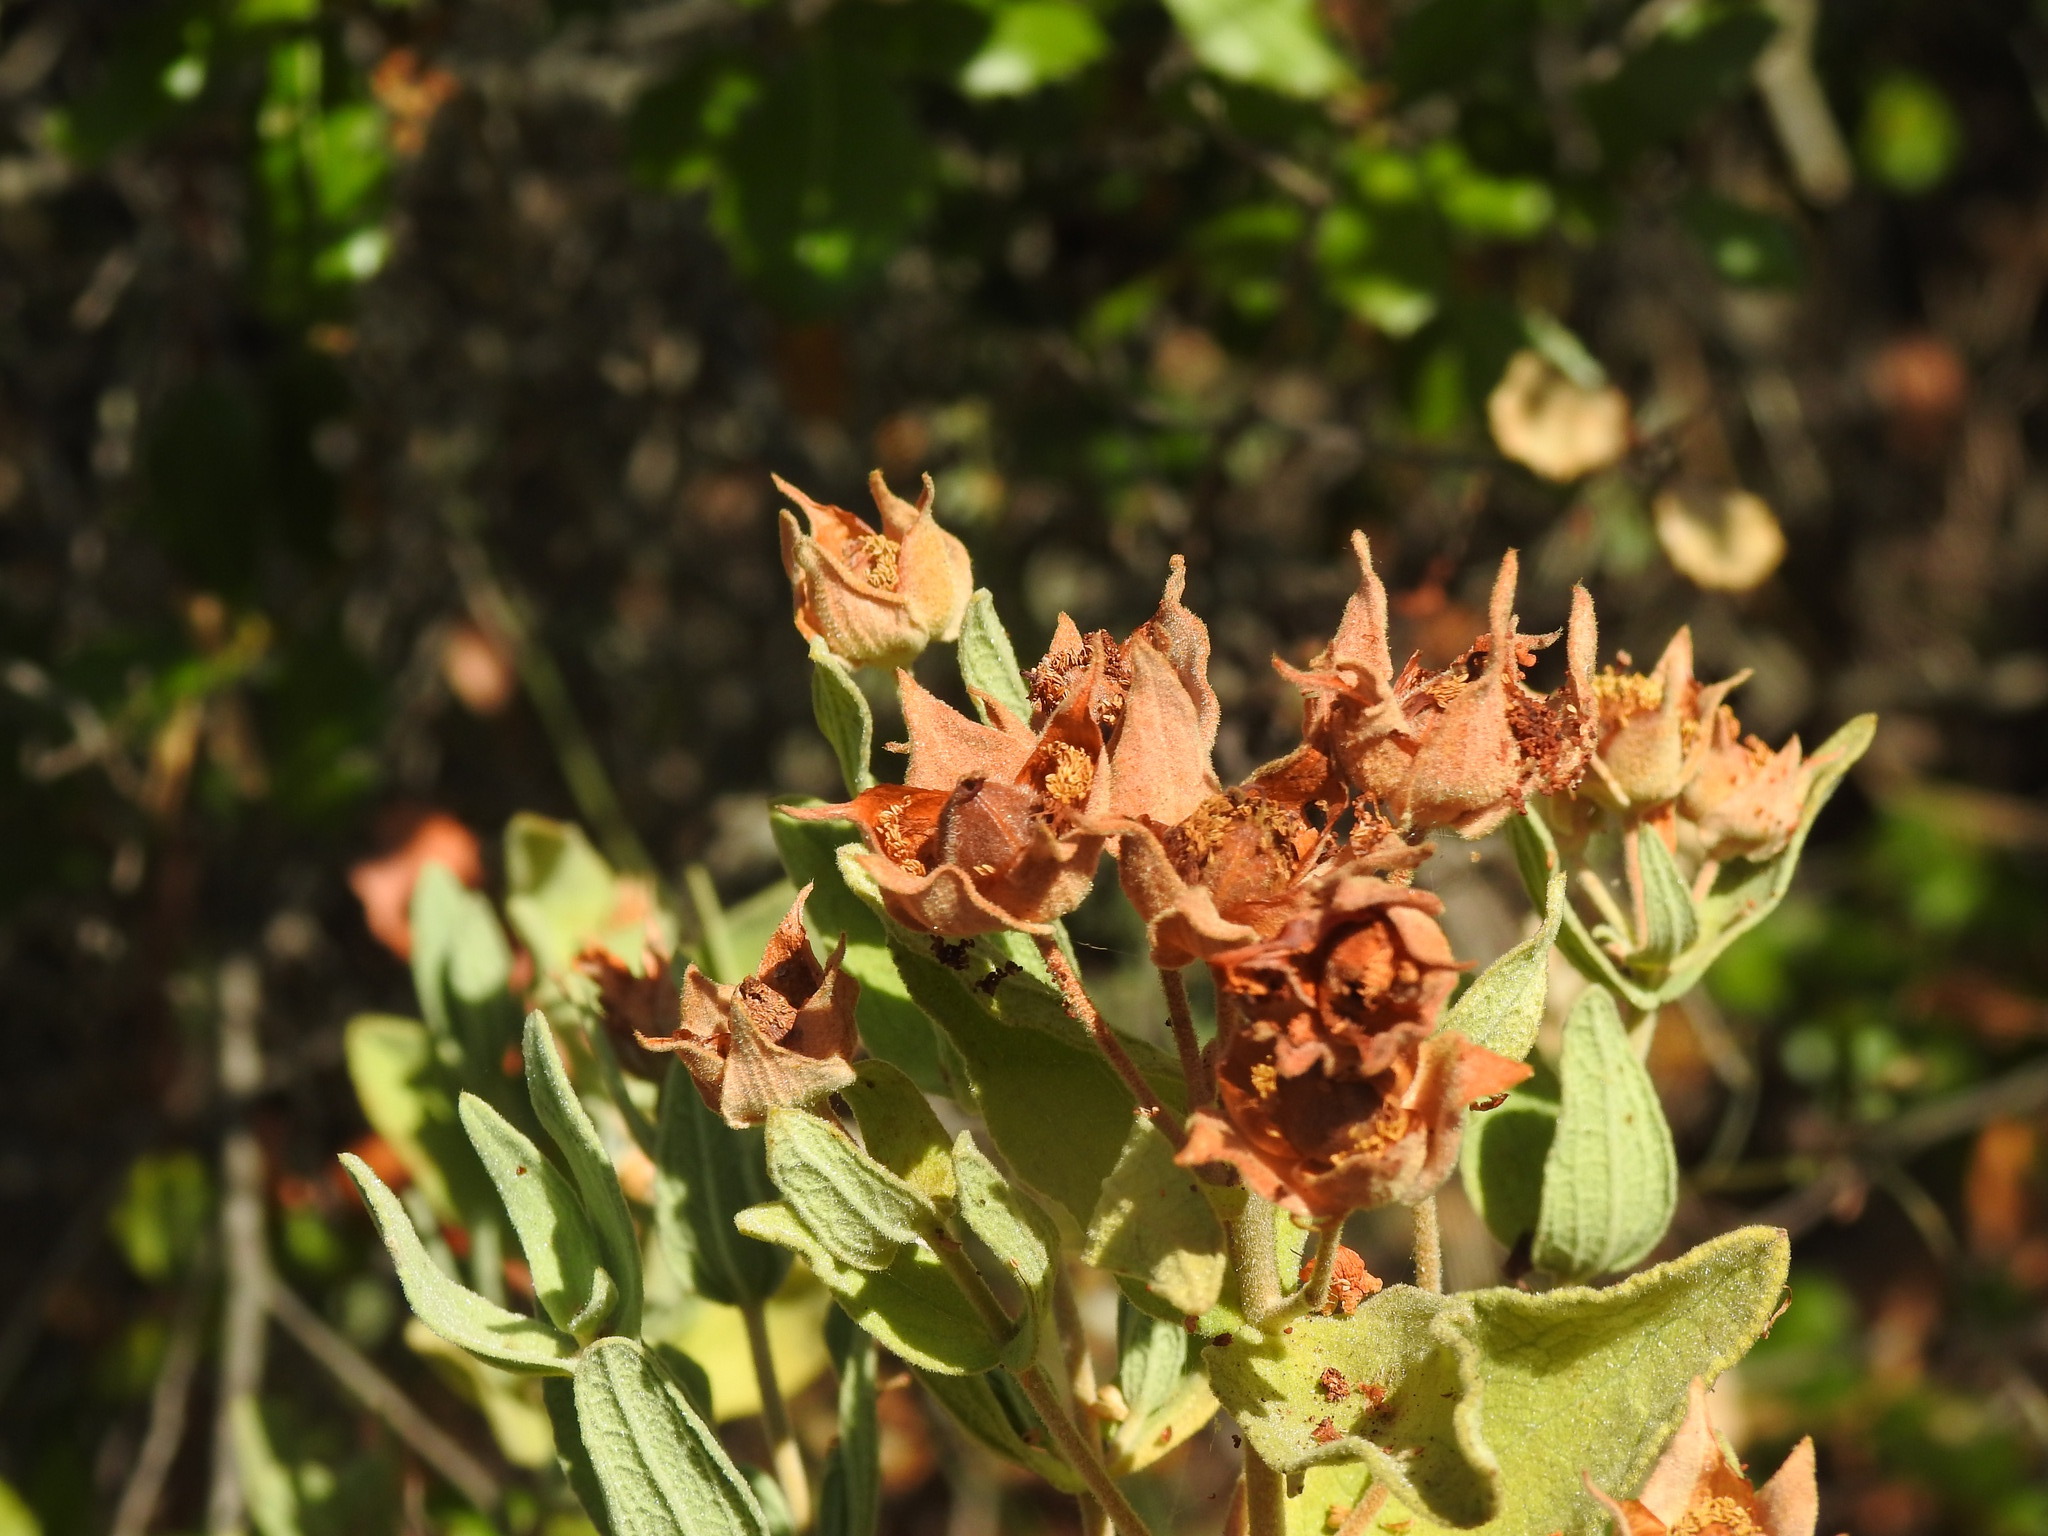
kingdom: Plantae
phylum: Tracheophyta
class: Magnoliopsida
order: Malvales
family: Cistaceae
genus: Cistus
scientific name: Cistus albidus
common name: White-leaf rock-rose
